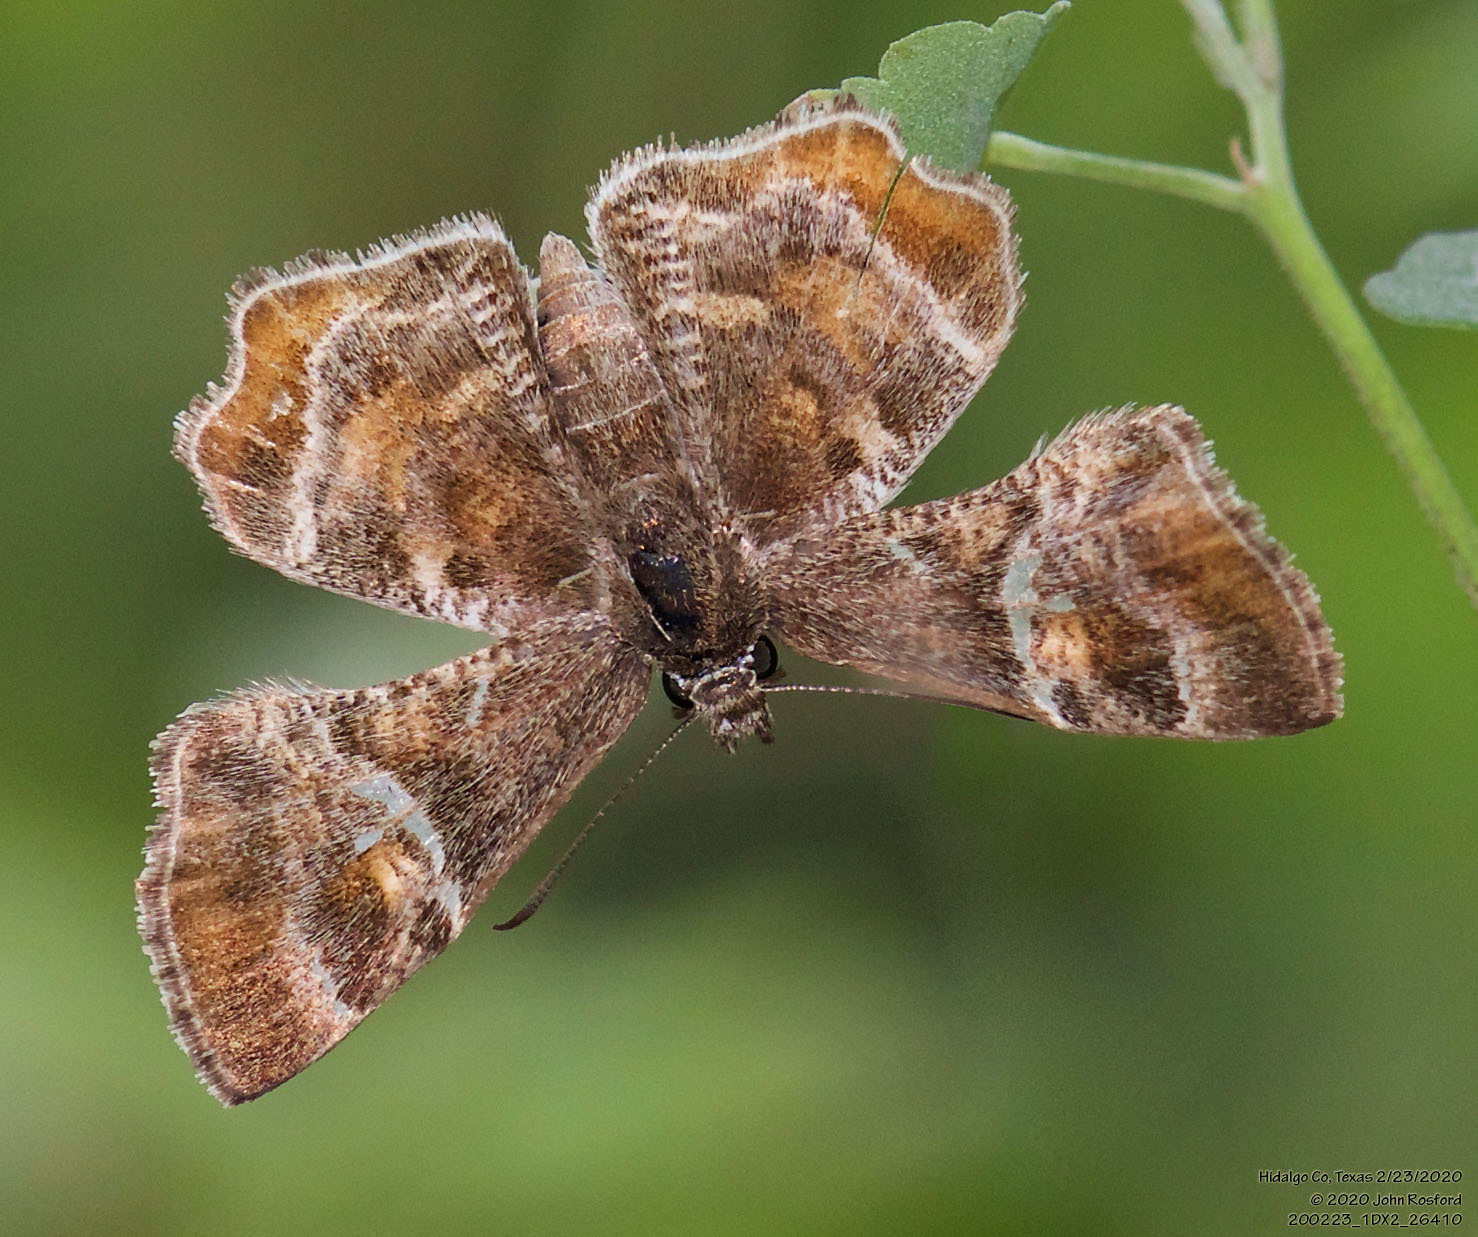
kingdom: Animalia
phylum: Arthropoda
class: Insecta
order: Lepidoptera
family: Hesperiidae
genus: Systasea
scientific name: Systasea pulverulenta
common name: Texas powdered skipper
